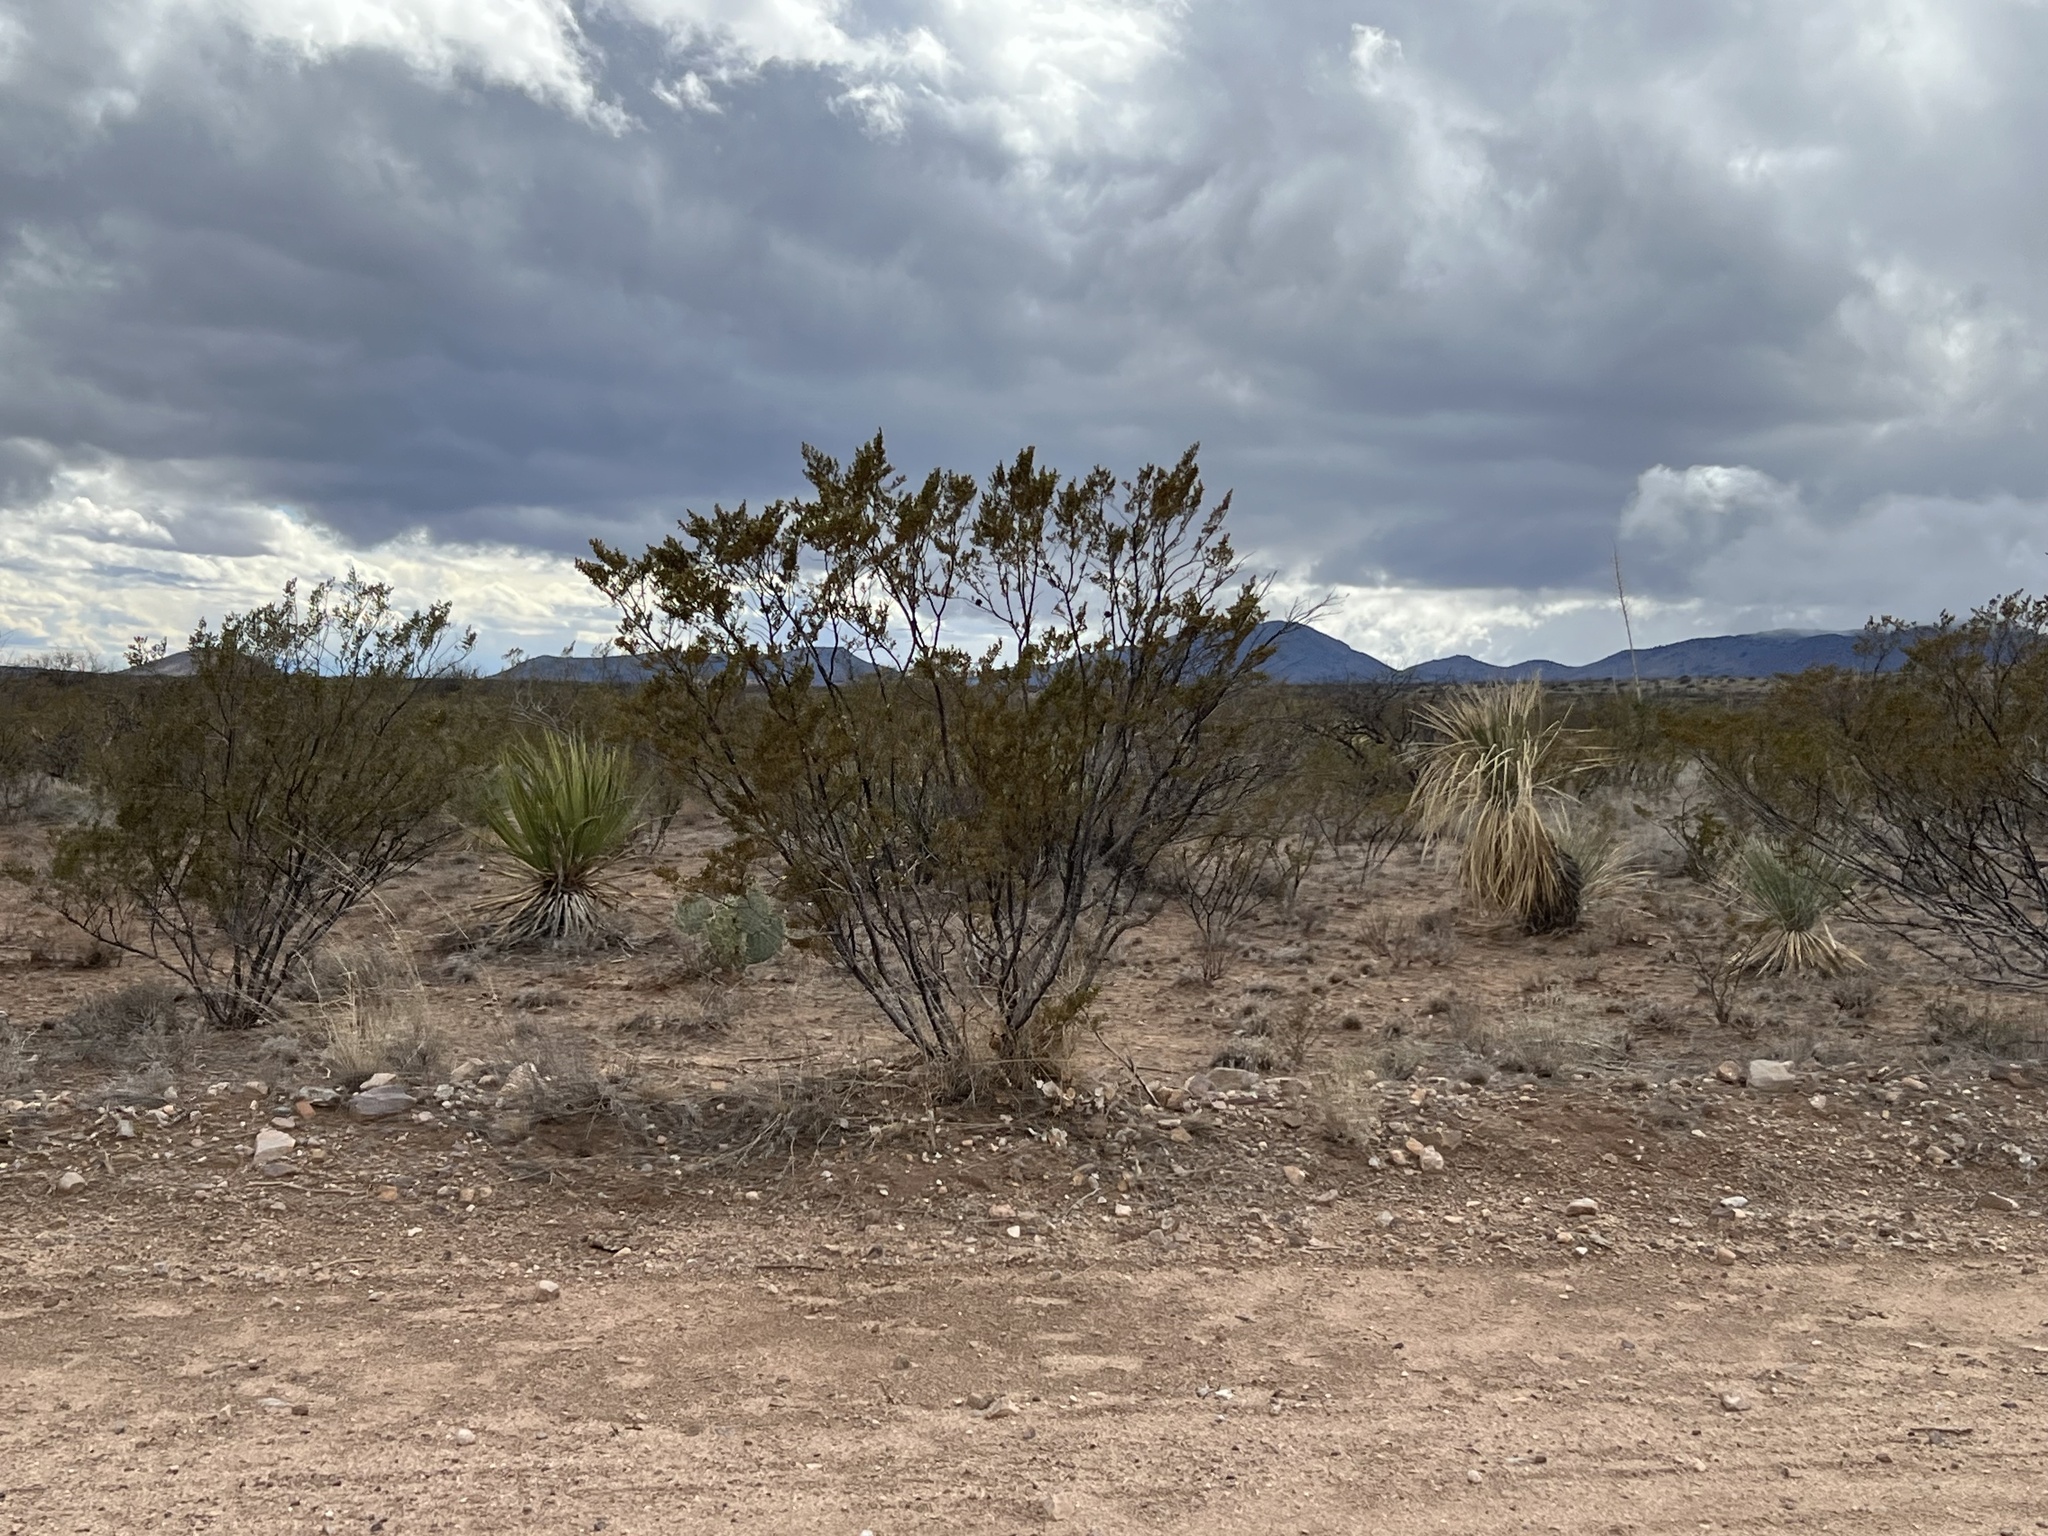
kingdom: Plantae
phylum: Tracheophyta
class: Magnoliopsida
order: Zygophyllales
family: Zygophyllaceae
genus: Larrea
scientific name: Larrea tridentata
